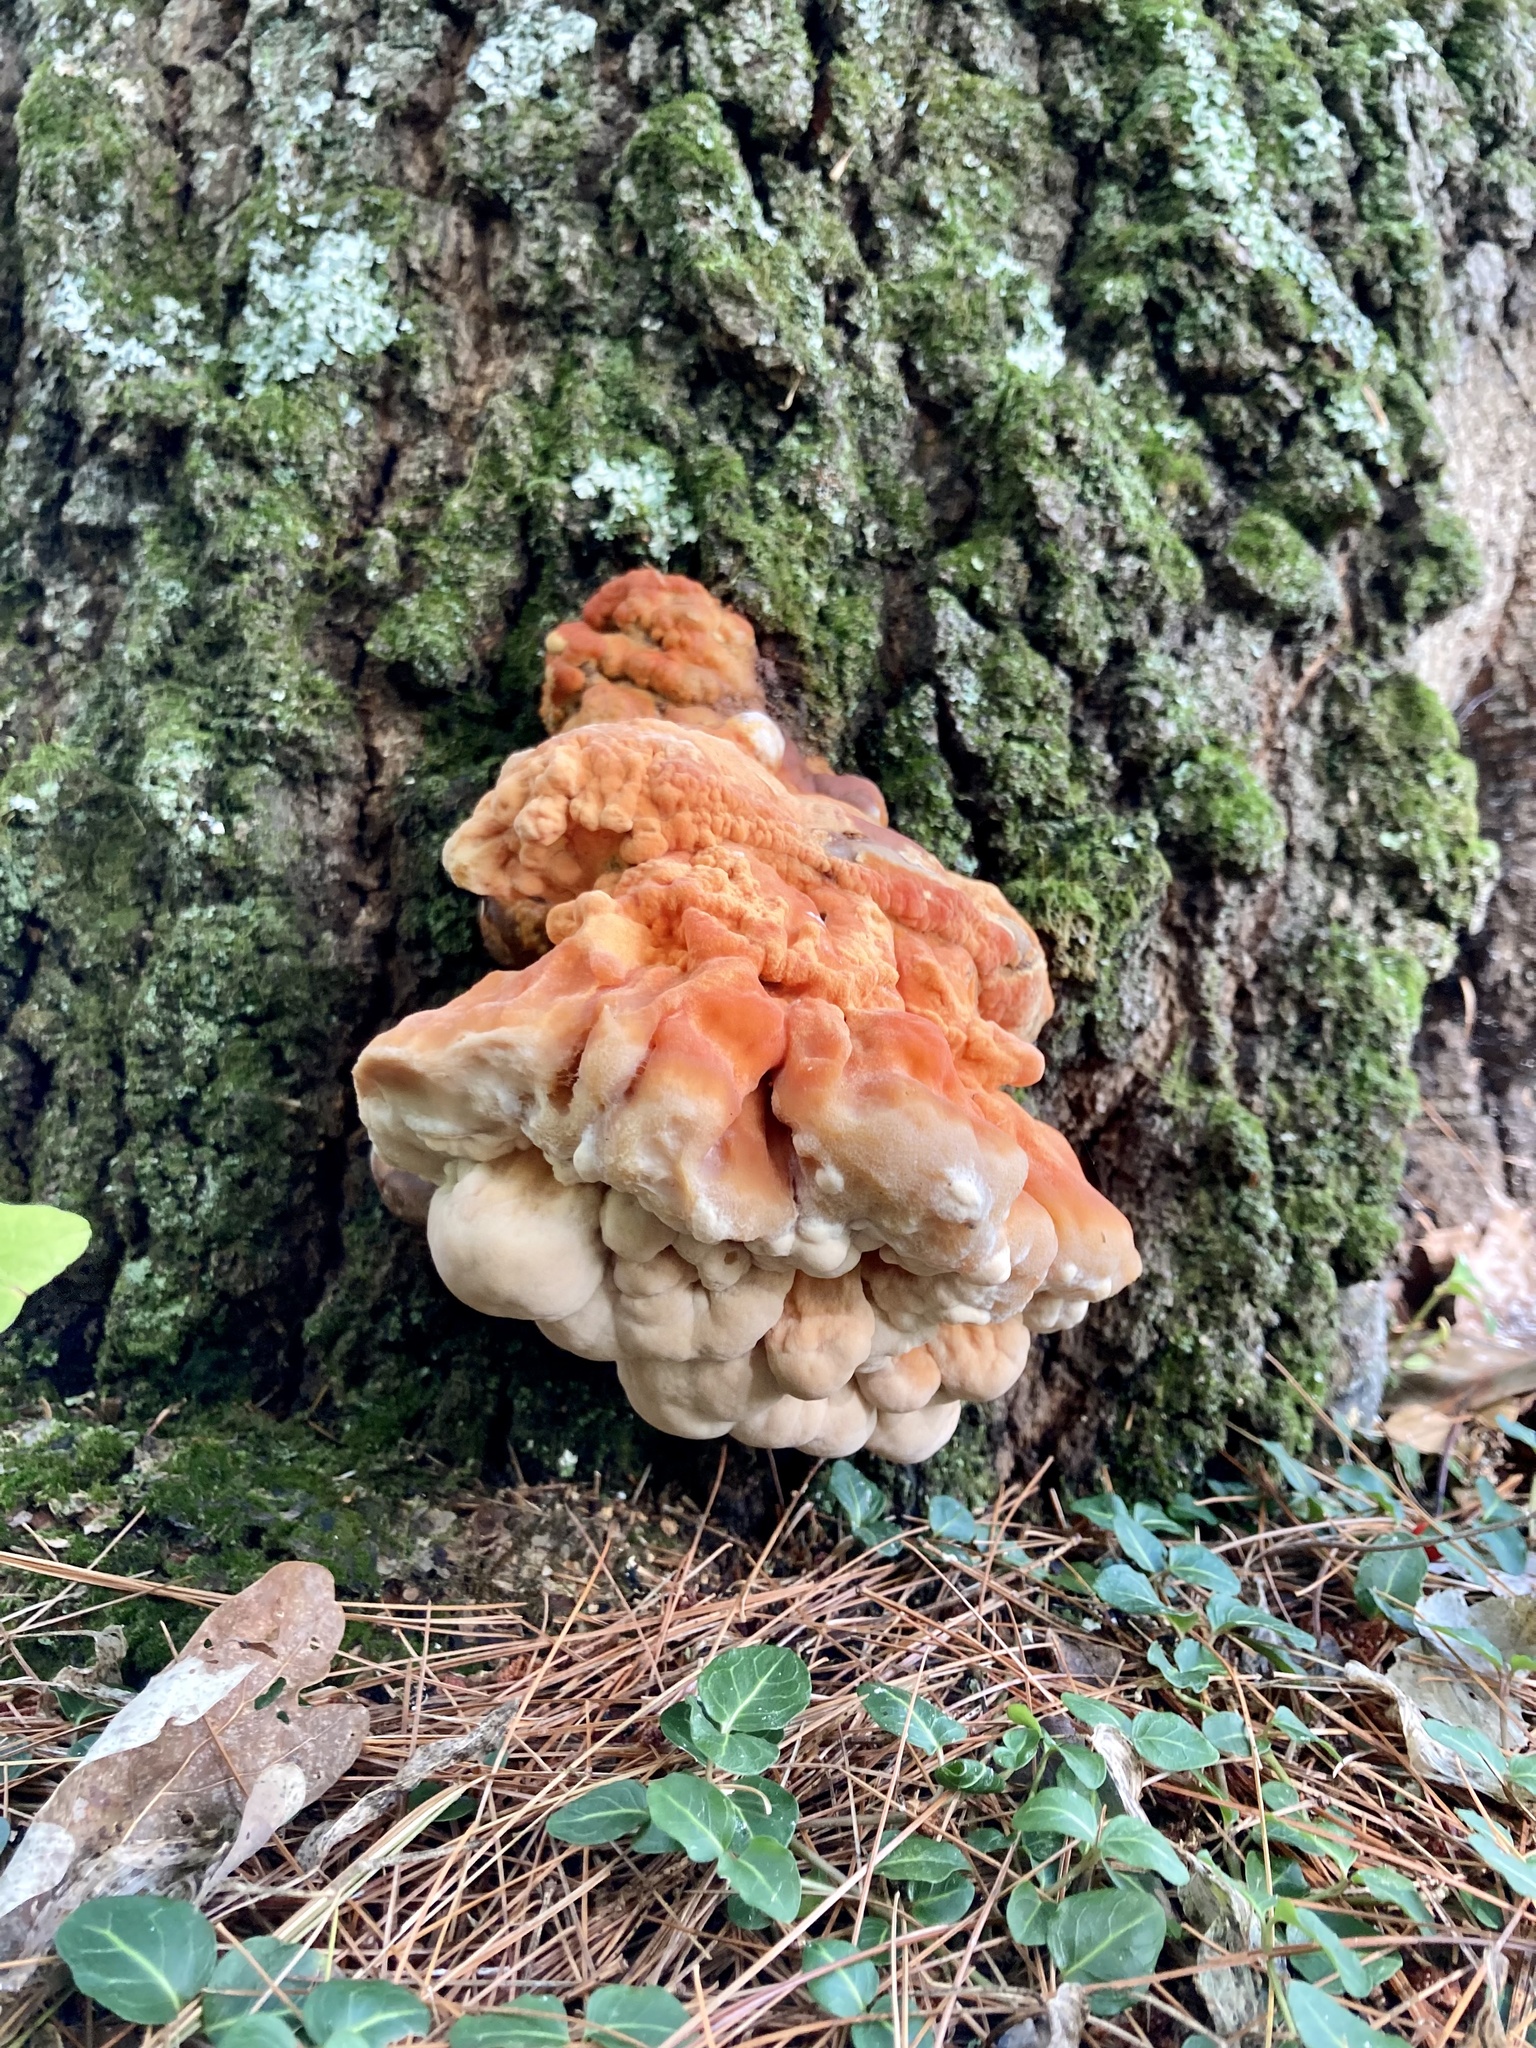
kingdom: Fungi
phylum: Basidiomycota
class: Agaricomycetes
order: Polyporales
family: Laetiporaceae
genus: Laetiporus
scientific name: Laetiporus sulphureus
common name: Chicken of the woods
